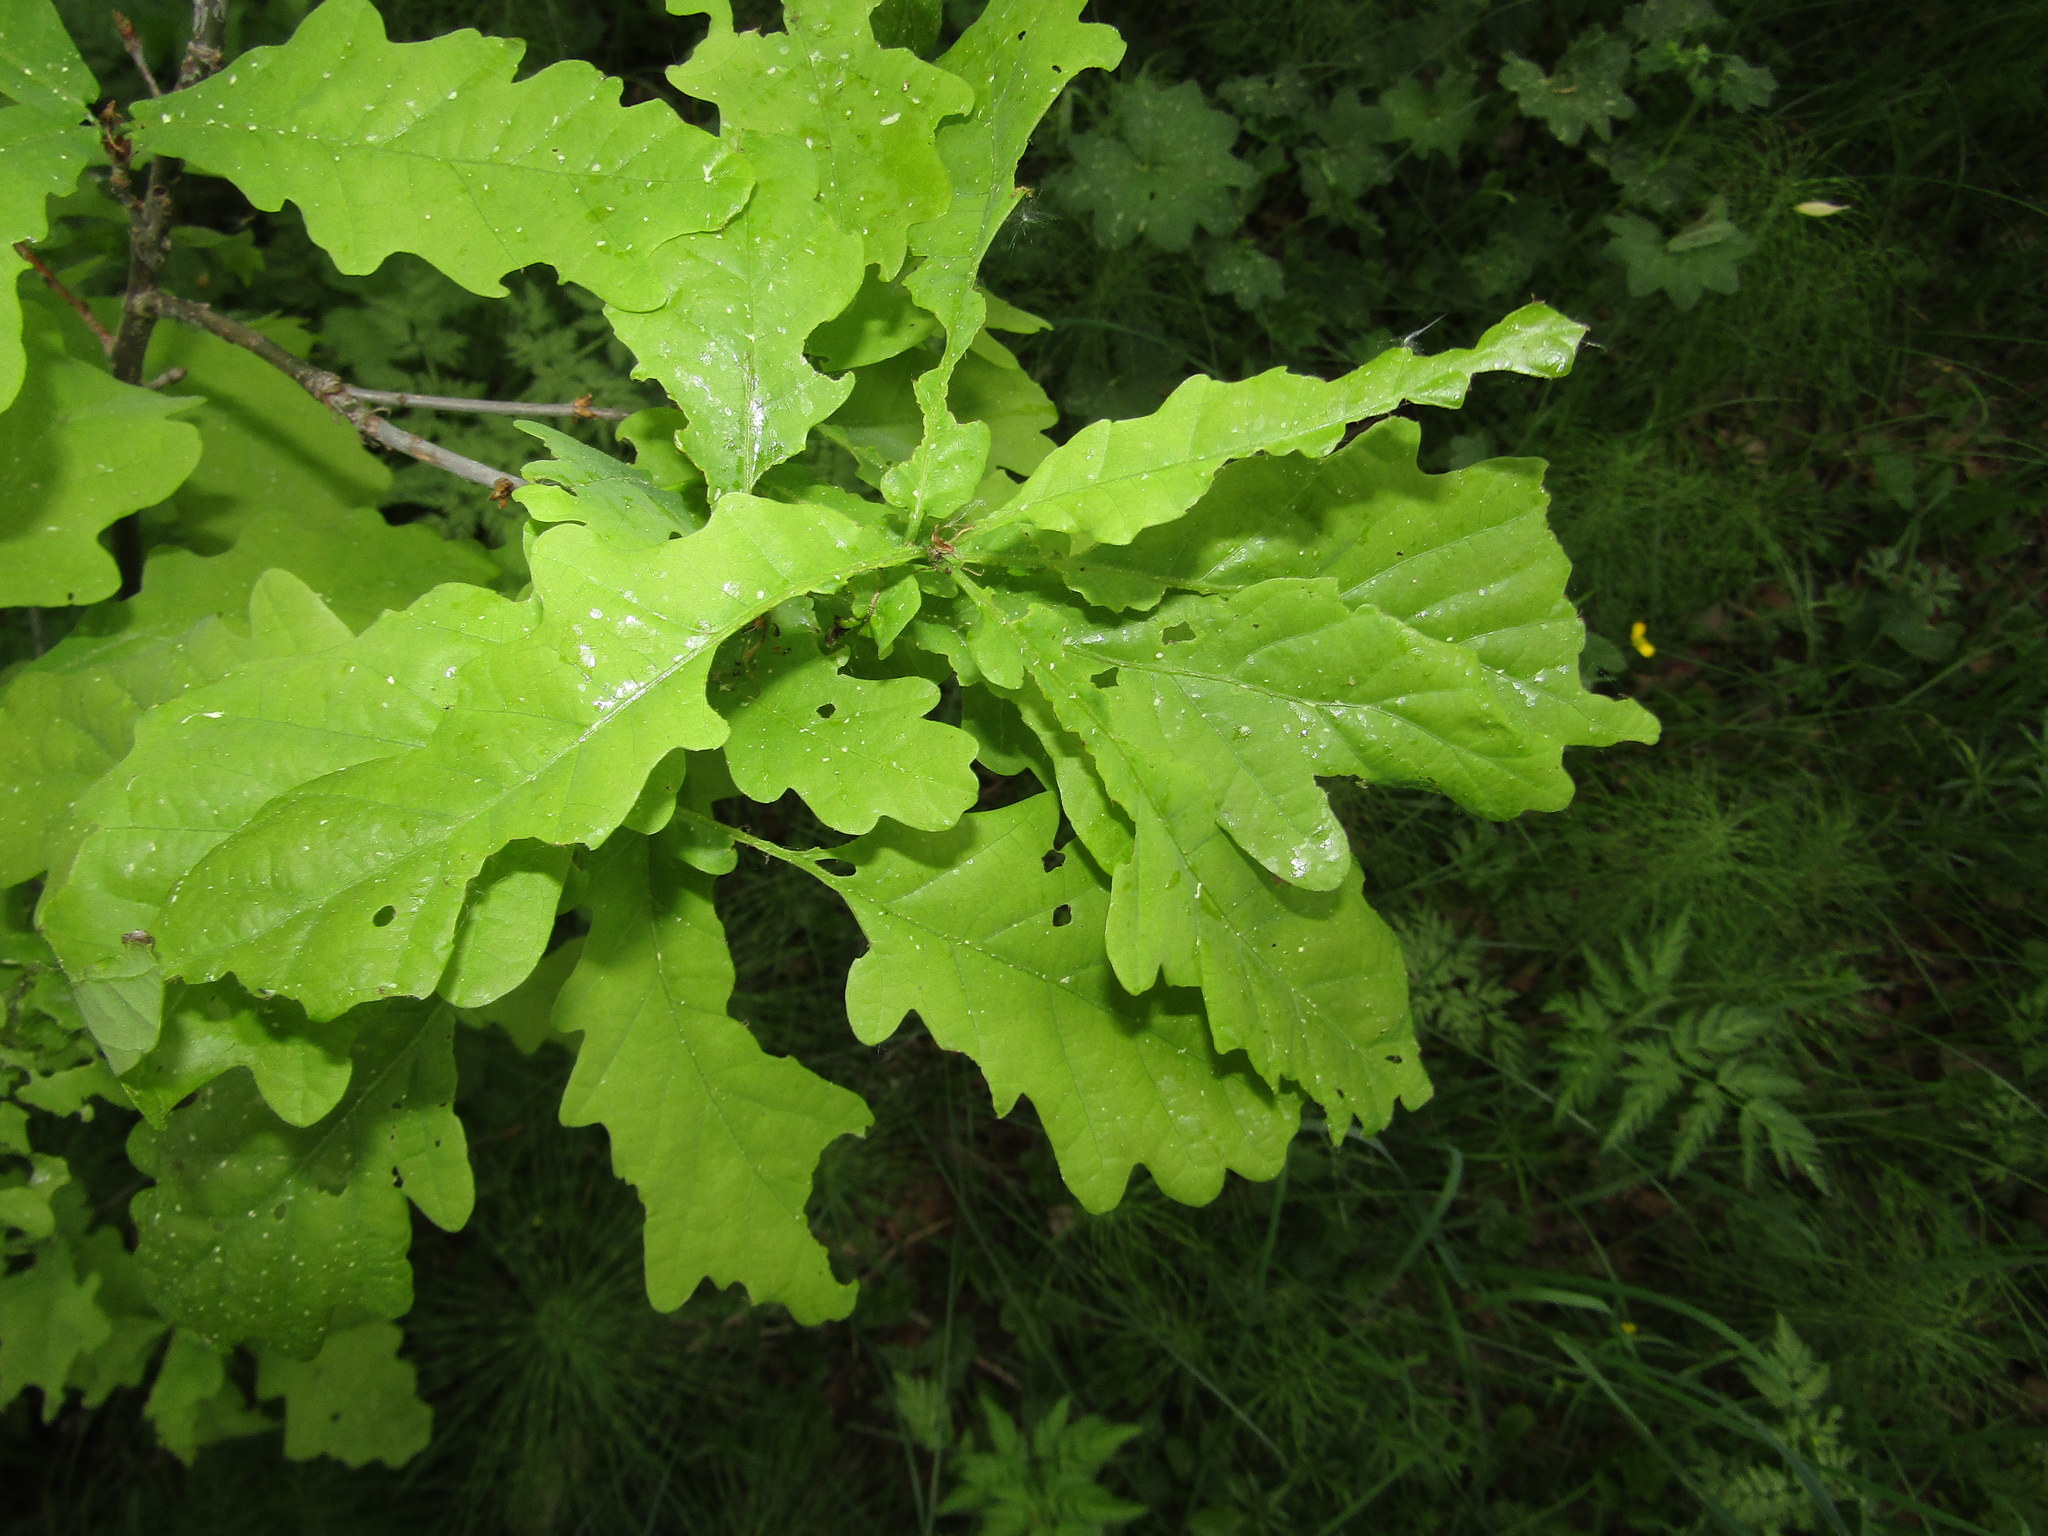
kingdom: Plantae
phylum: Tracheophyta
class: Magnoliopsida
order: Fagales
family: Fagaceae
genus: Quercus
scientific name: Quercus robur
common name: Pedunculate oak
